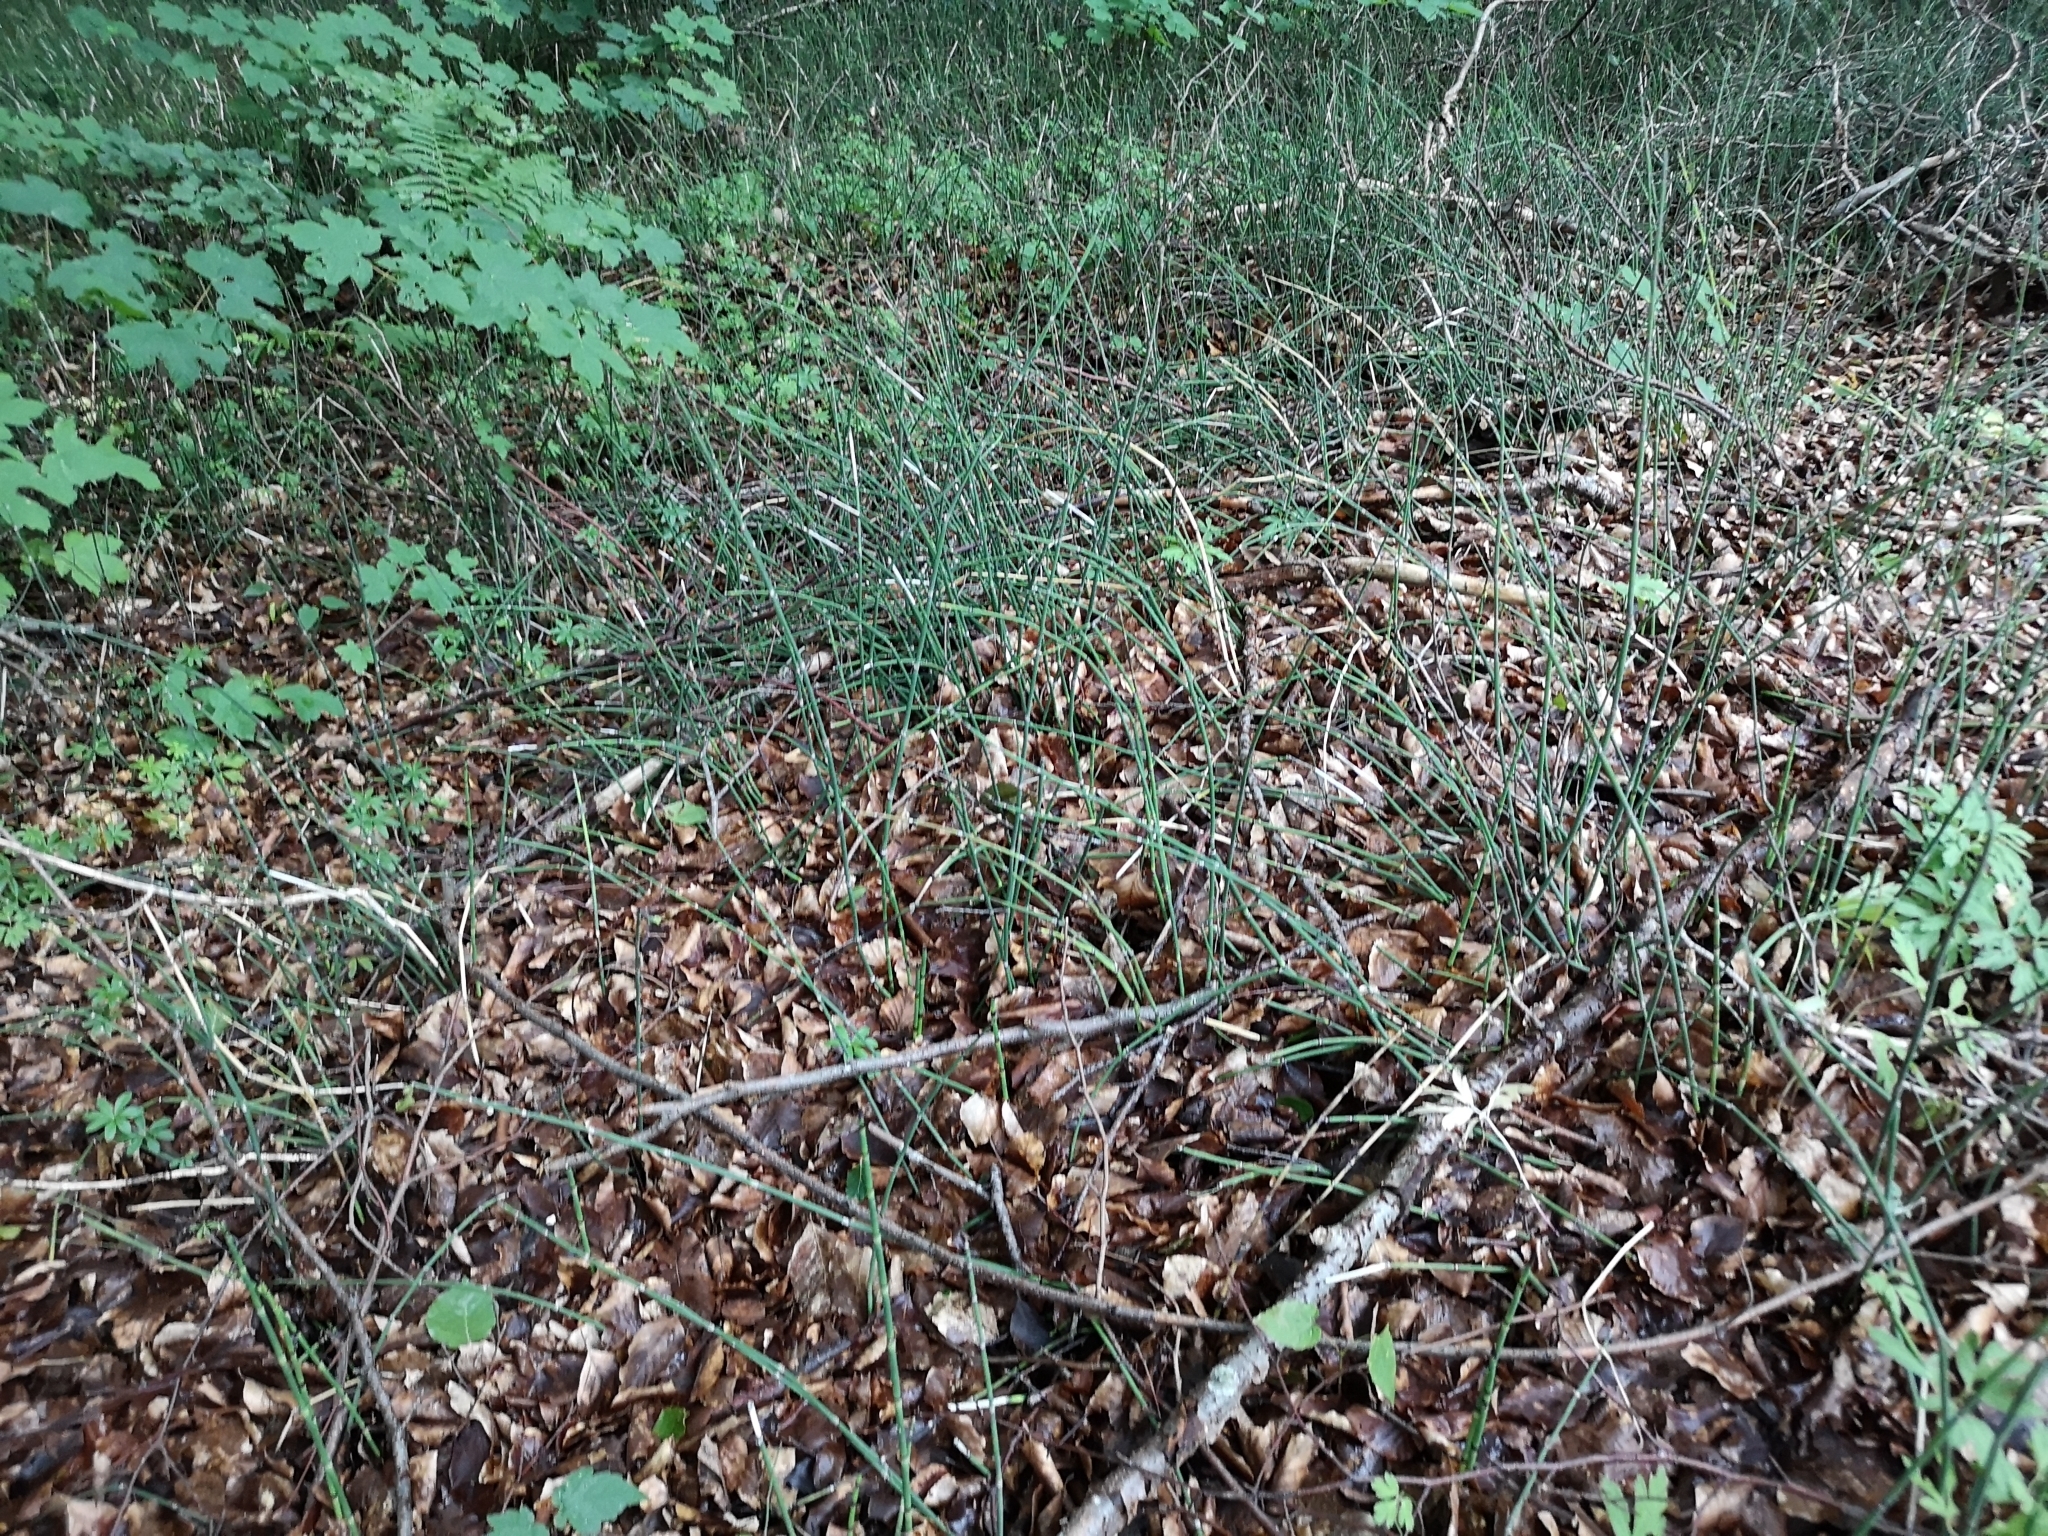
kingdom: Plantae
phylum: Tracheophyta
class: Polypodiopsida
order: Equisetales
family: Equisetaceae
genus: Equisetum
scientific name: Equisetum hyemale
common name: Rough horsetail
